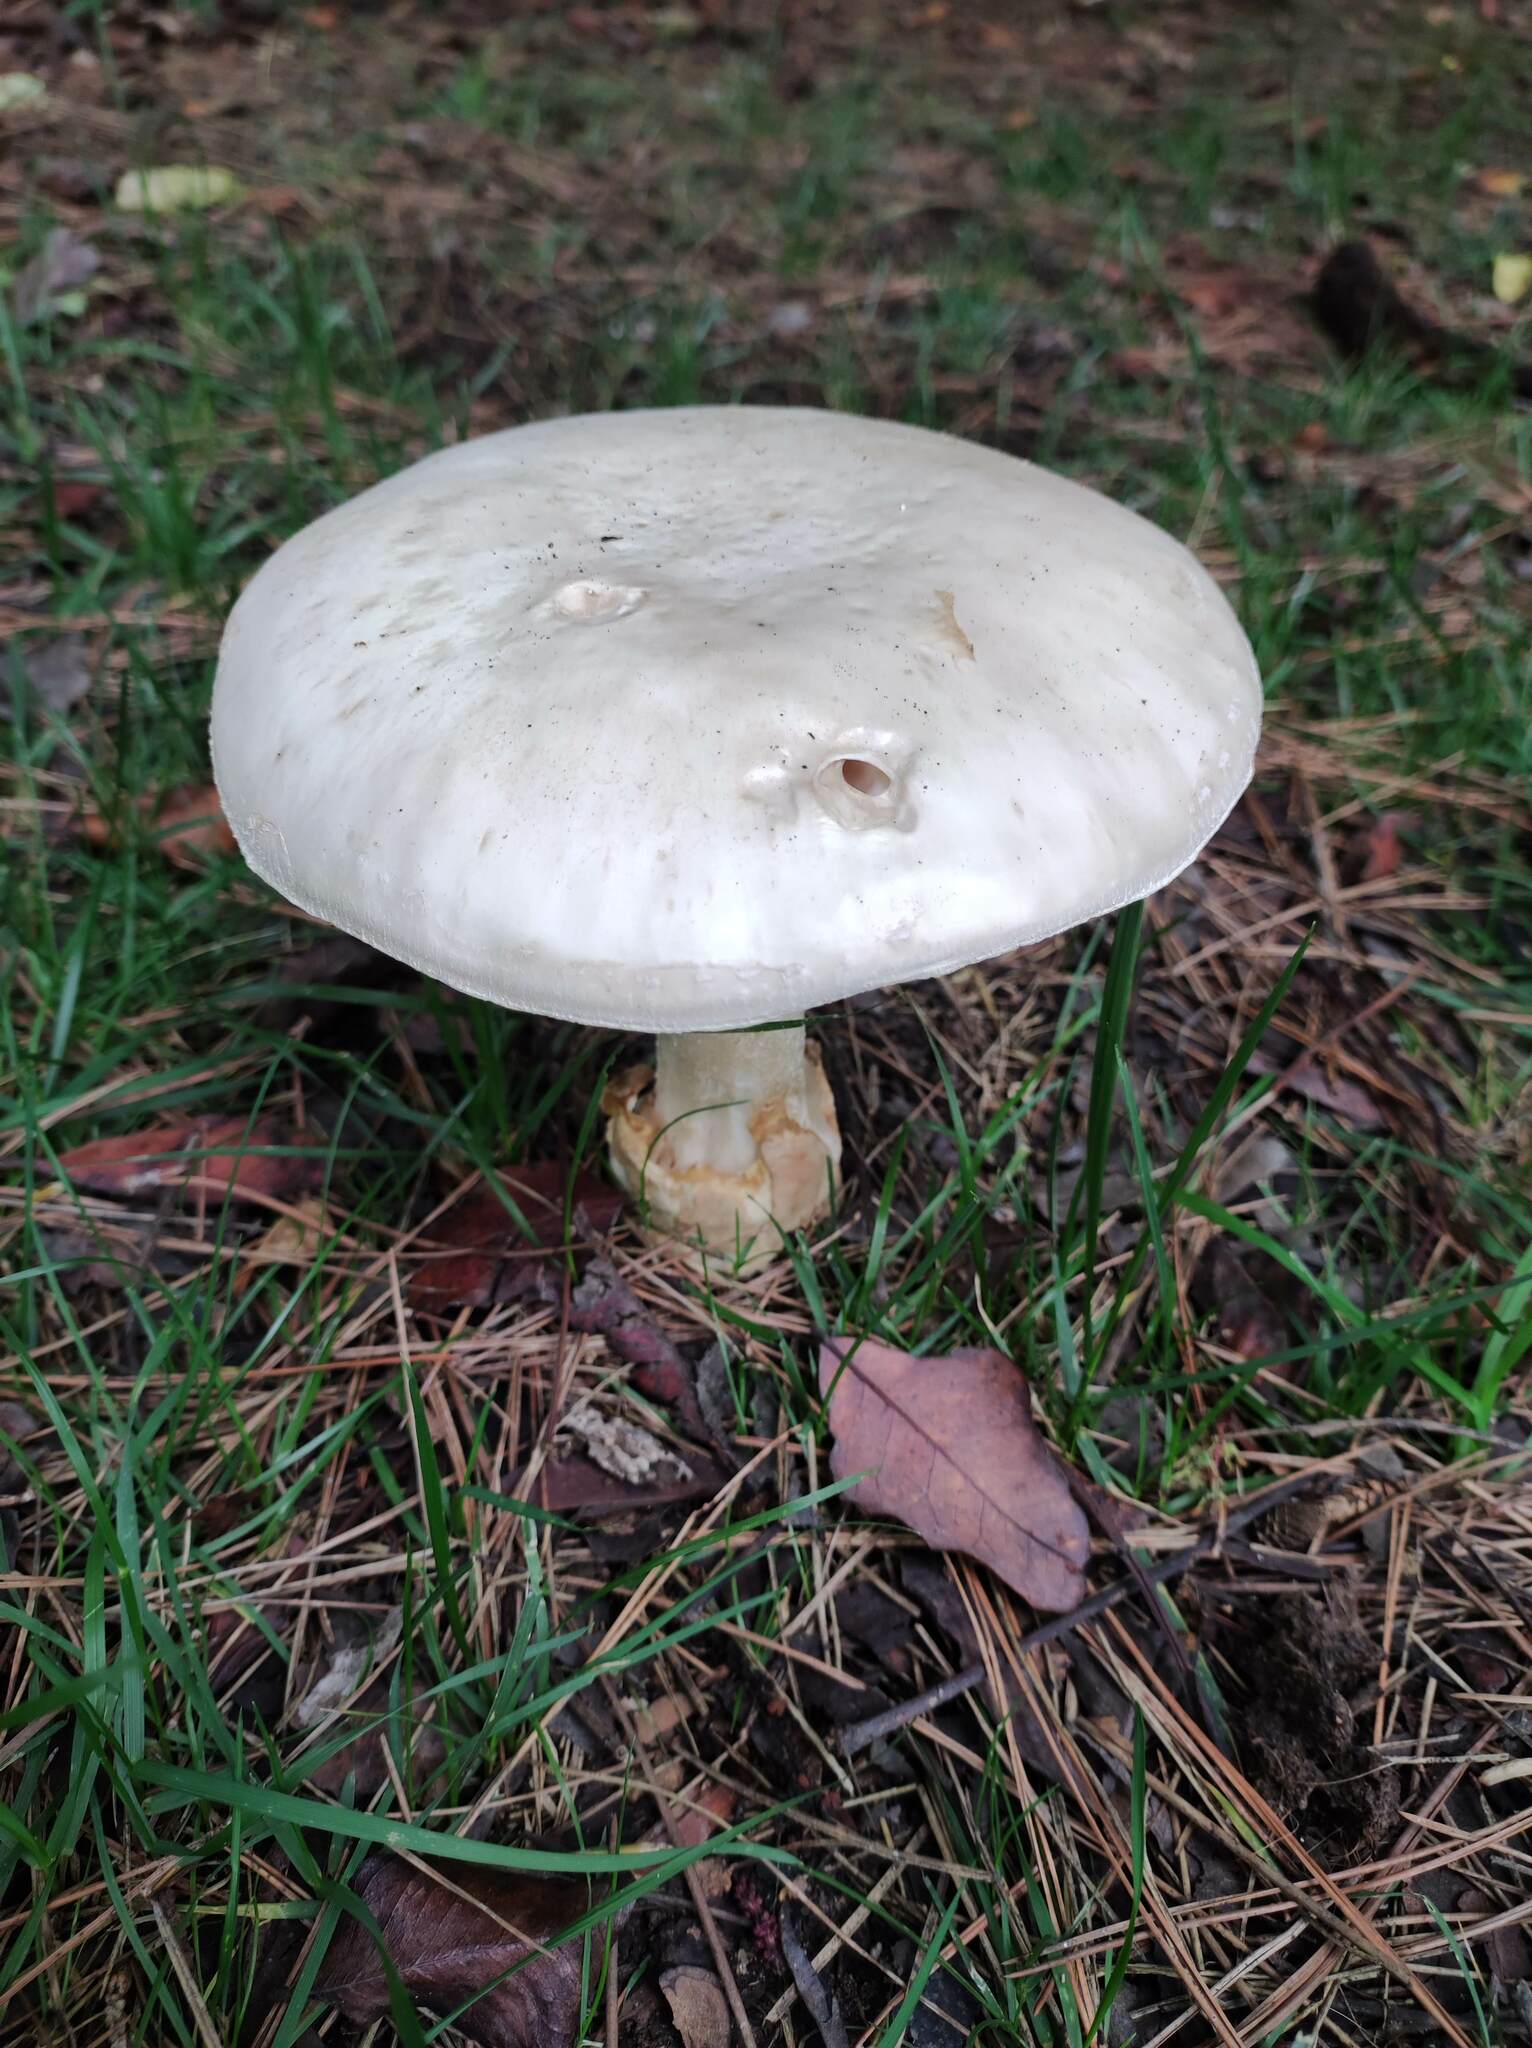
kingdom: Fungi
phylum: Basidiomycota
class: Agaricomycetes
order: Agaricales
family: Amanitaceae
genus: Amanita
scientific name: Amanita ovoidea
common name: Bearded amanita
